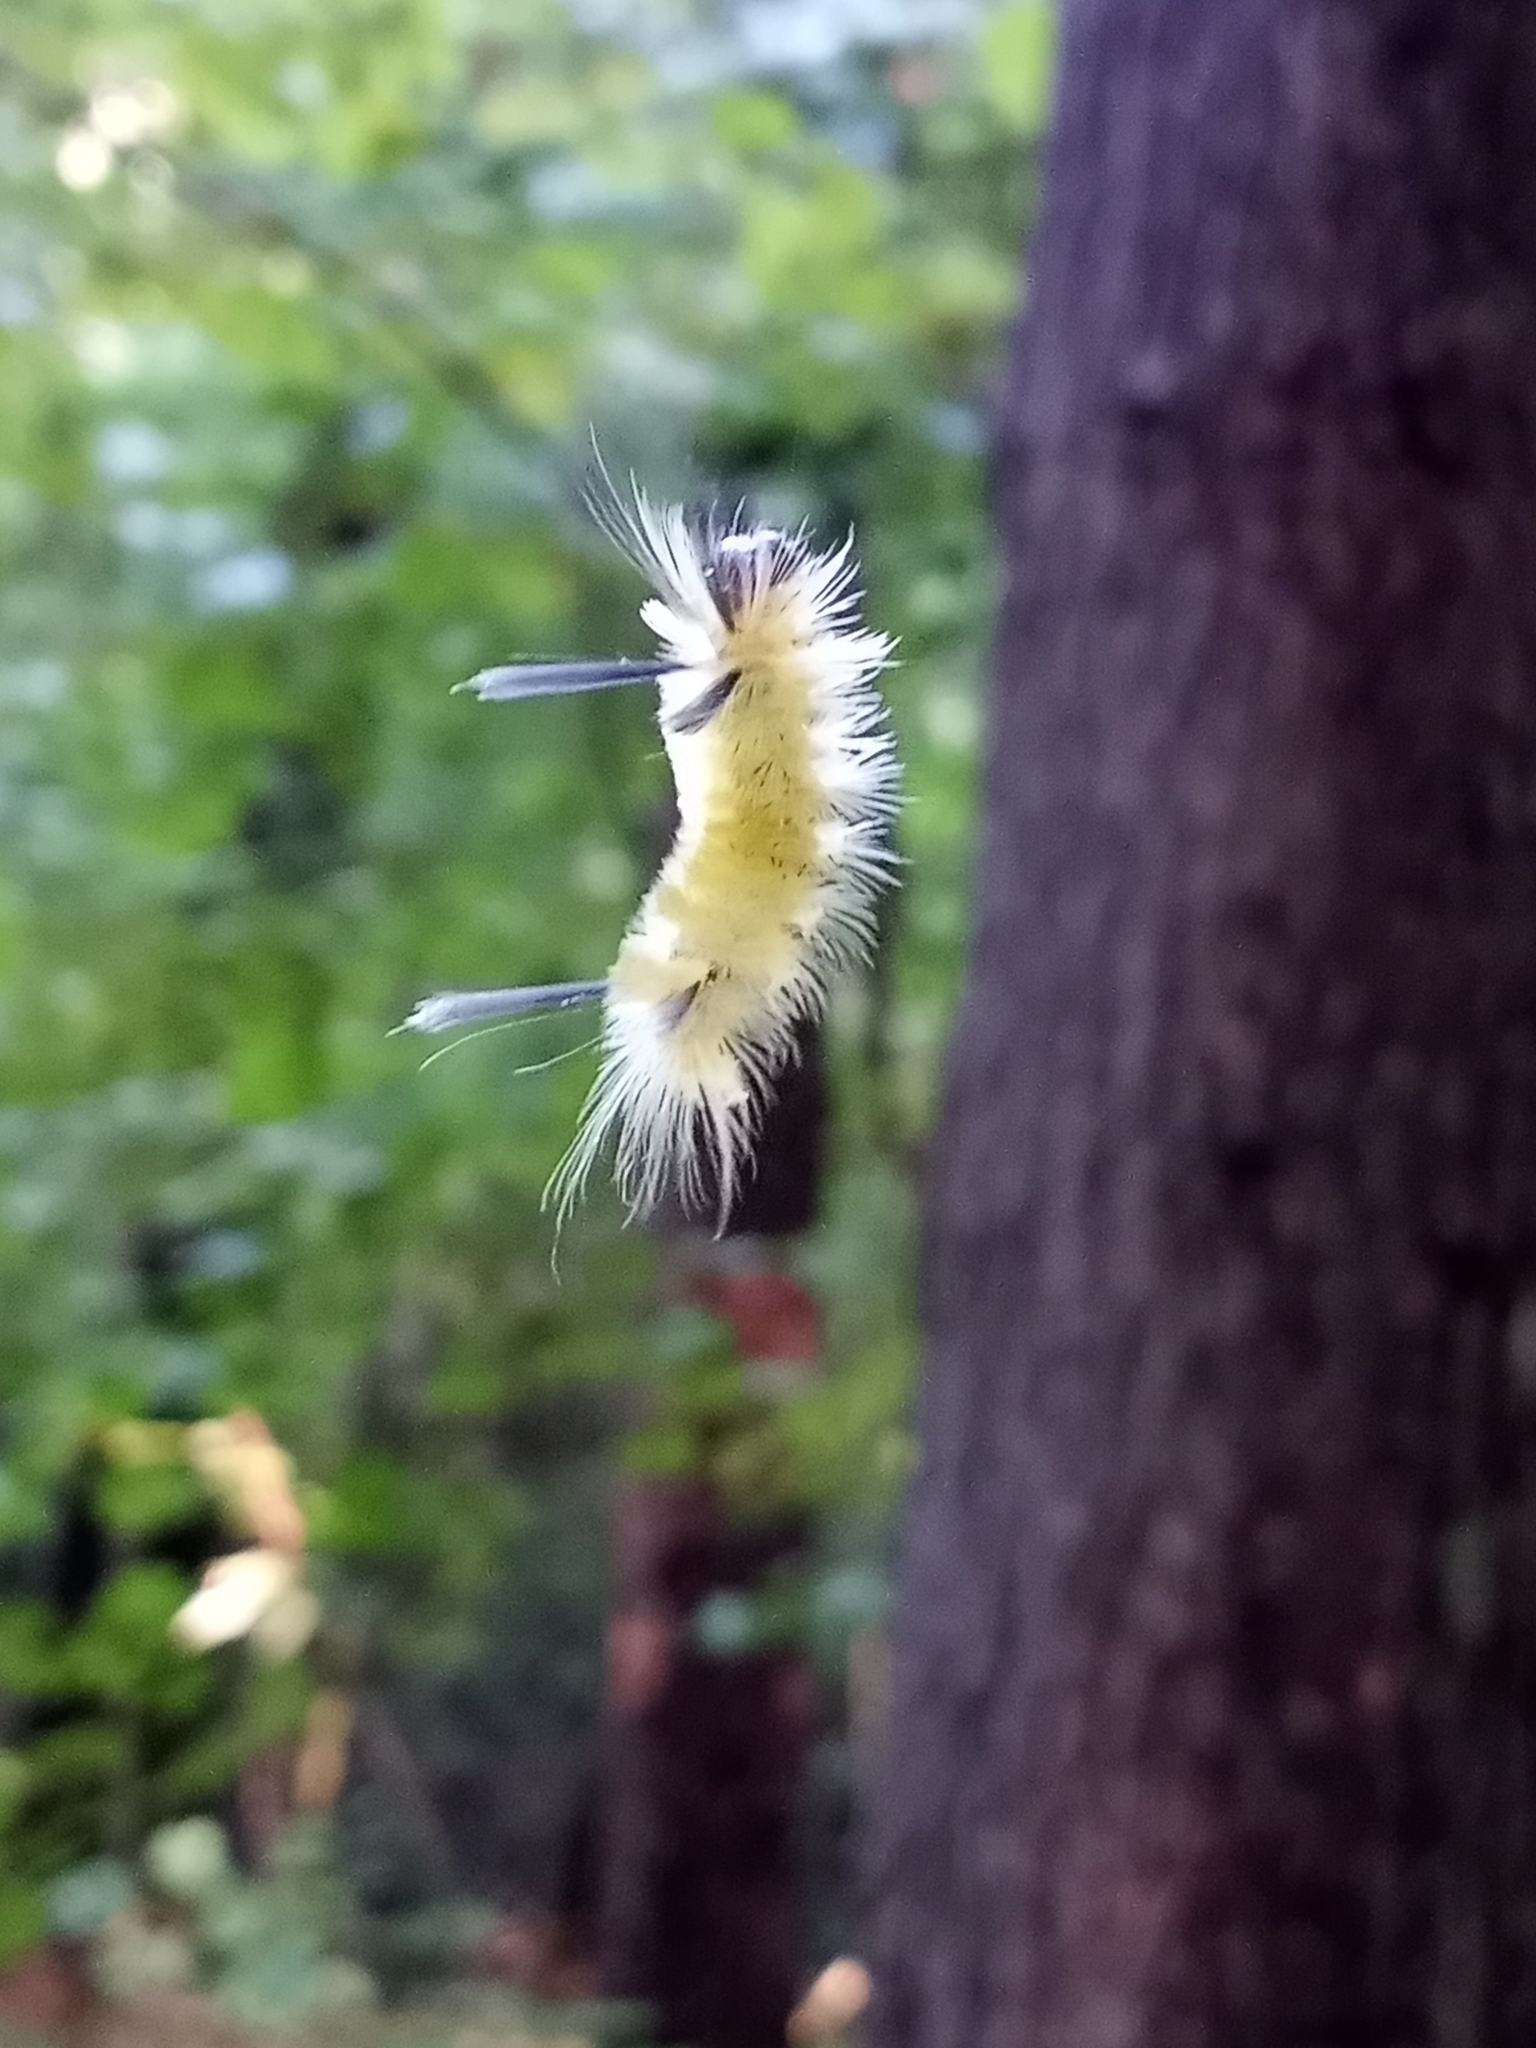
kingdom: Animalia
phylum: Arthropoda
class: Insecta
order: Lepidoptera
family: Erebidae
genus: Halysidota
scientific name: Halysidota tessellaris
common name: Banded tussock moth
